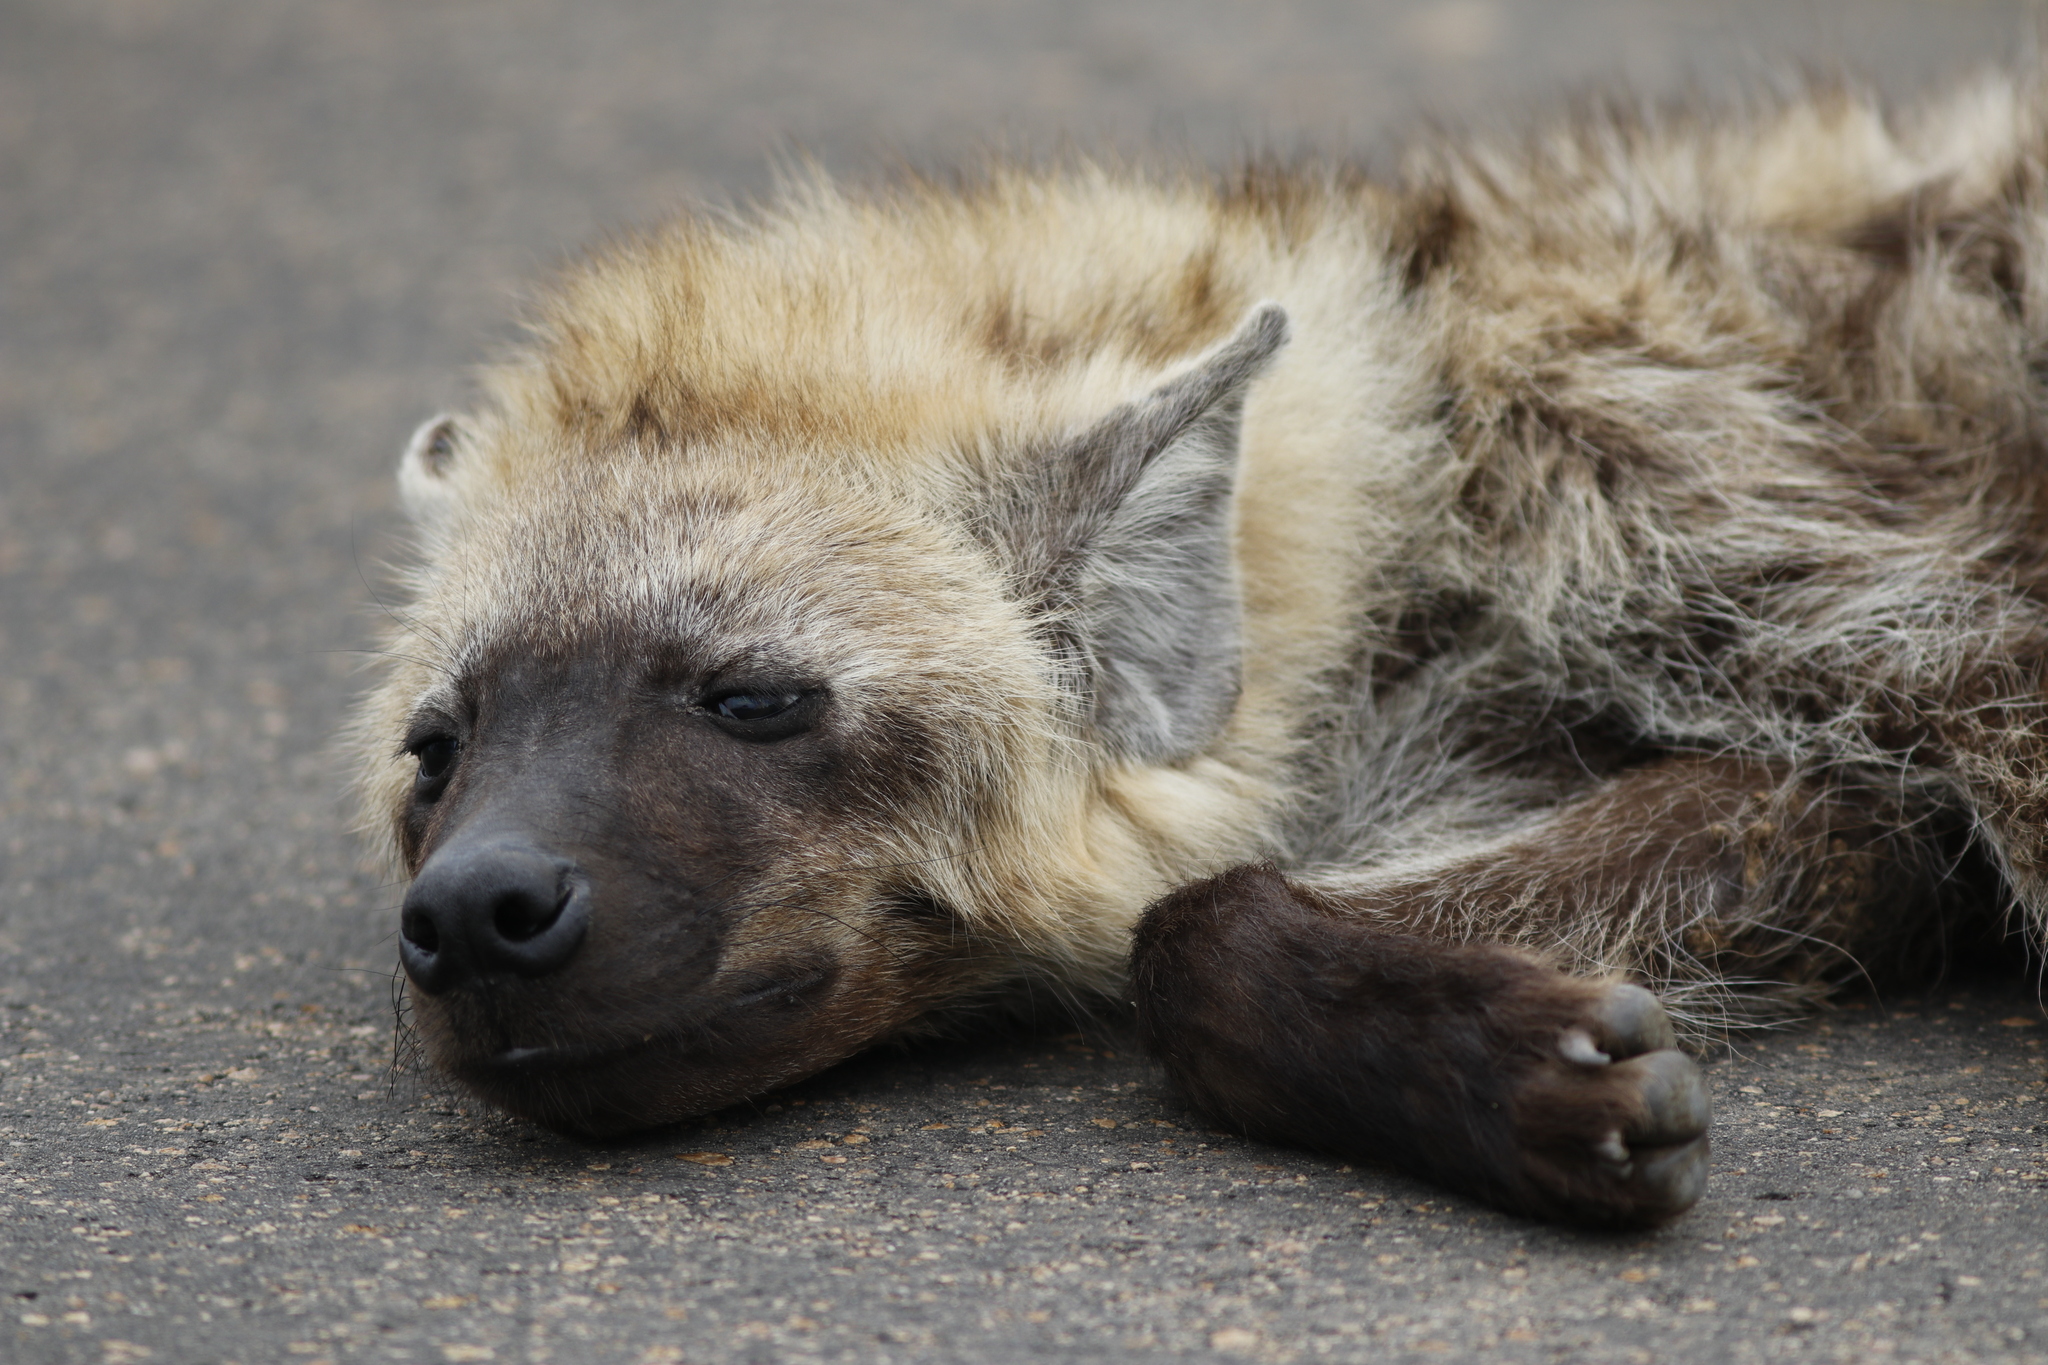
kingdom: Animalia
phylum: Chordata
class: Mammalia
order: Carnivora
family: Hyaenidae
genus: Crocuta
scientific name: Crocuta crocuta
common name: Spotted hyaena
